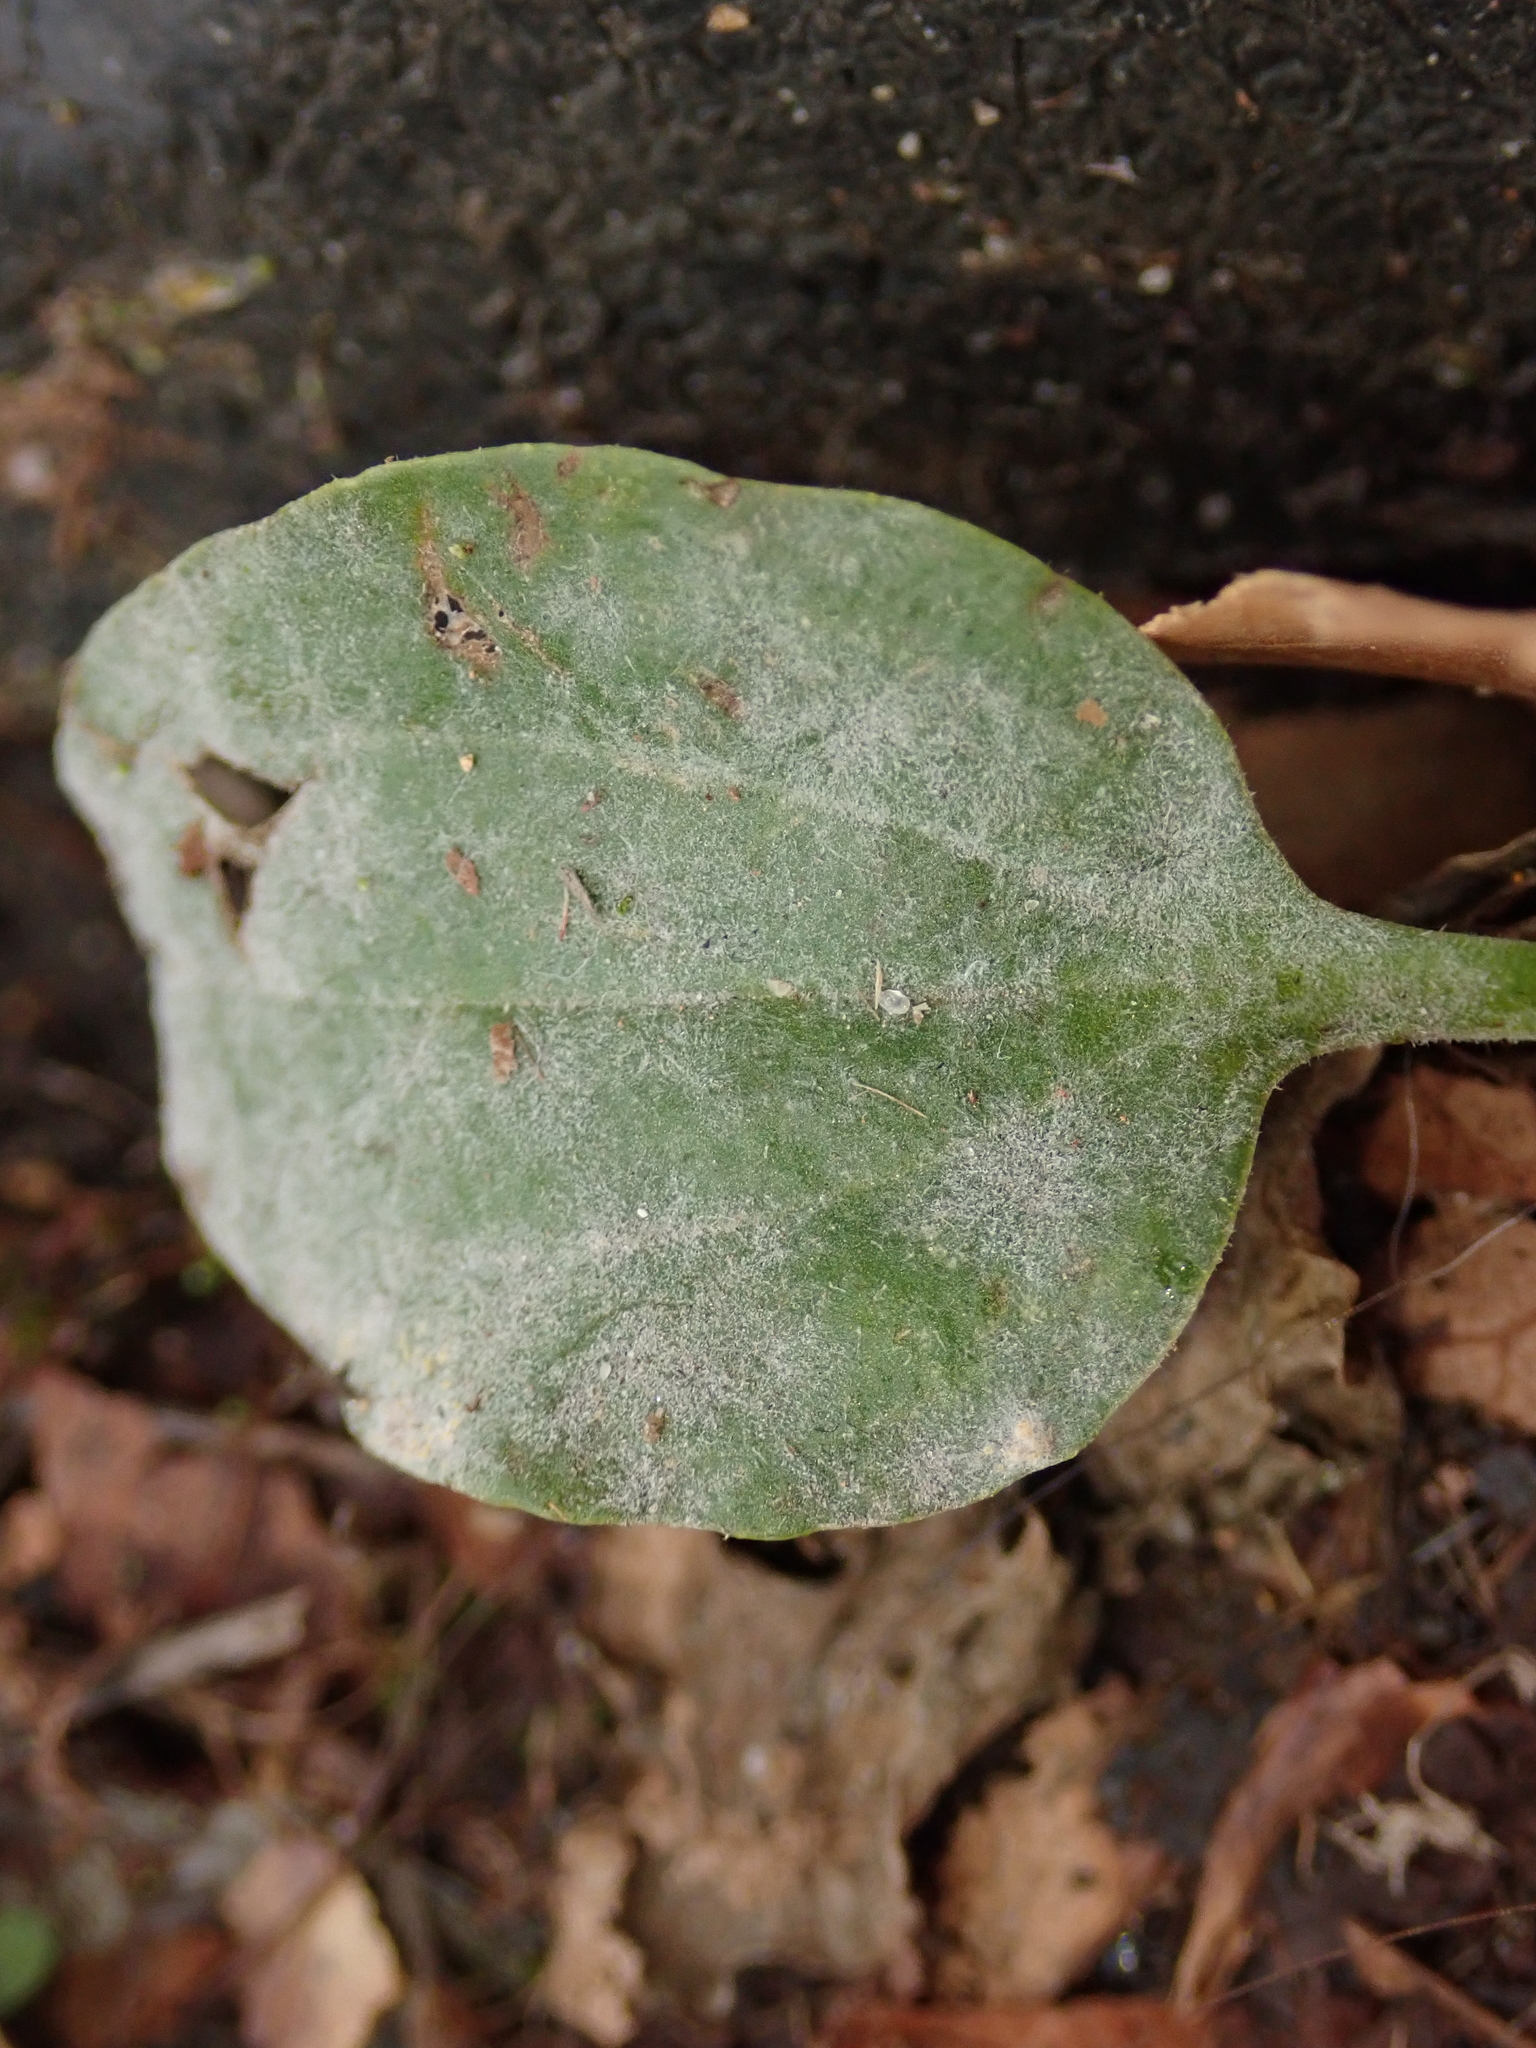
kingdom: Fungi
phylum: Ascomycota
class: Leotiomycetes
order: Helotiales
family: Erysiphaceae
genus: Podosphaera
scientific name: Podosphaera plantaginis
